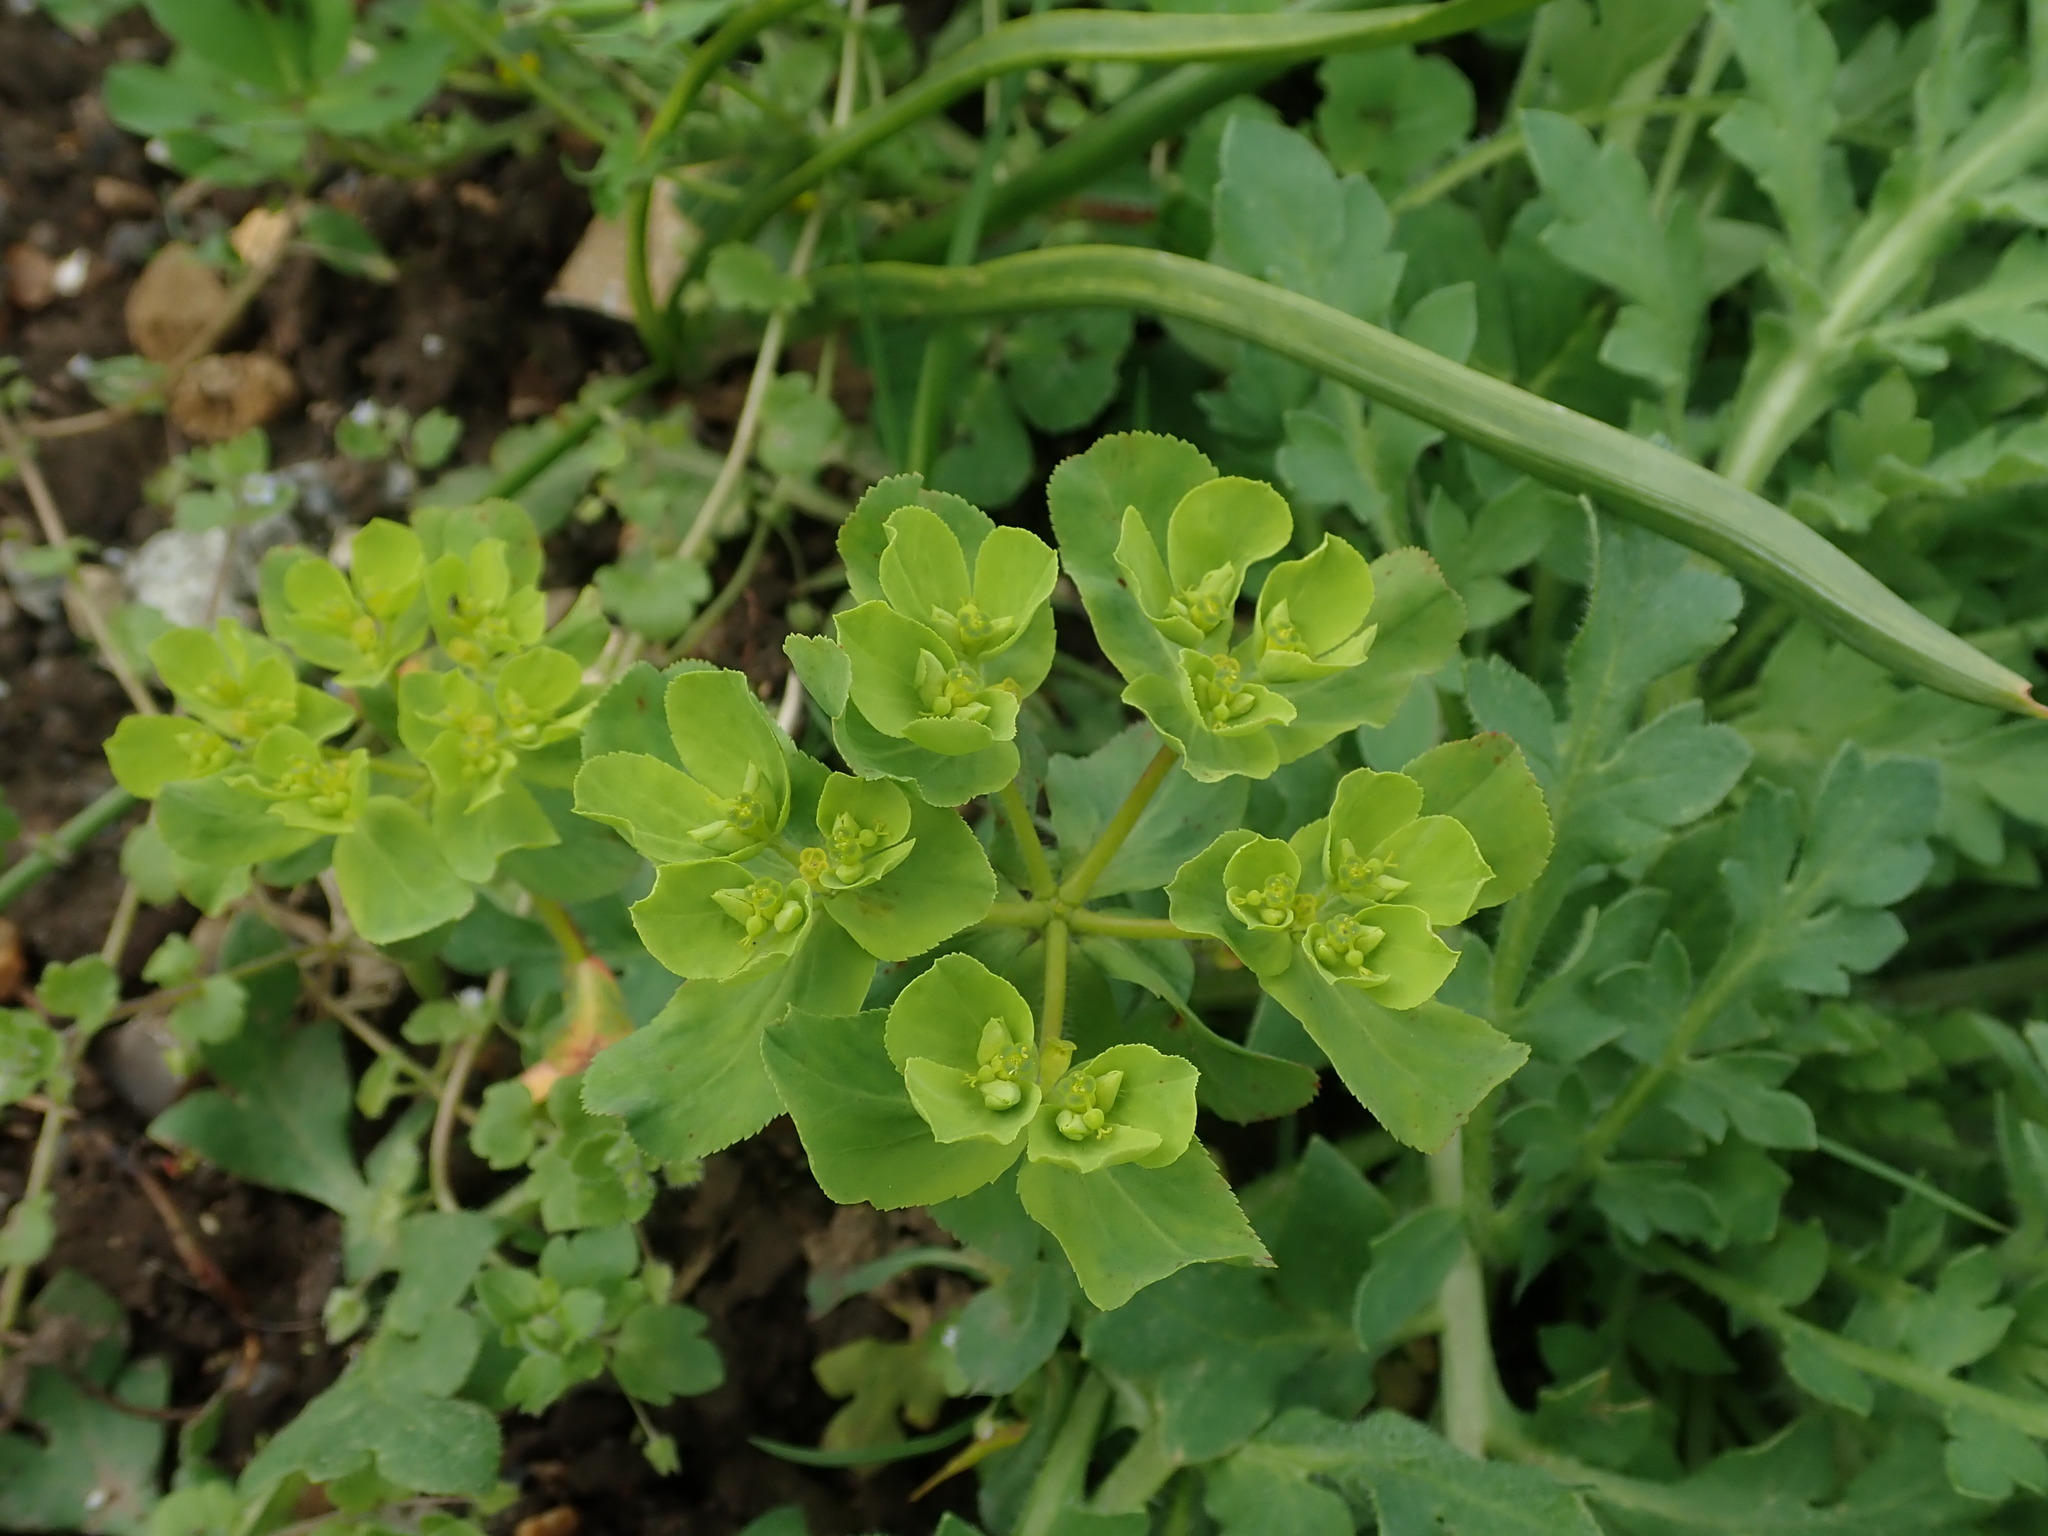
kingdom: Plantae
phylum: Tracheophyta
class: Magnoliopsida
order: Malpighiales
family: Euphorbiaceae
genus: Euphorbia
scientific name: Euphorbia helioscopia
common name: Sun spurge
